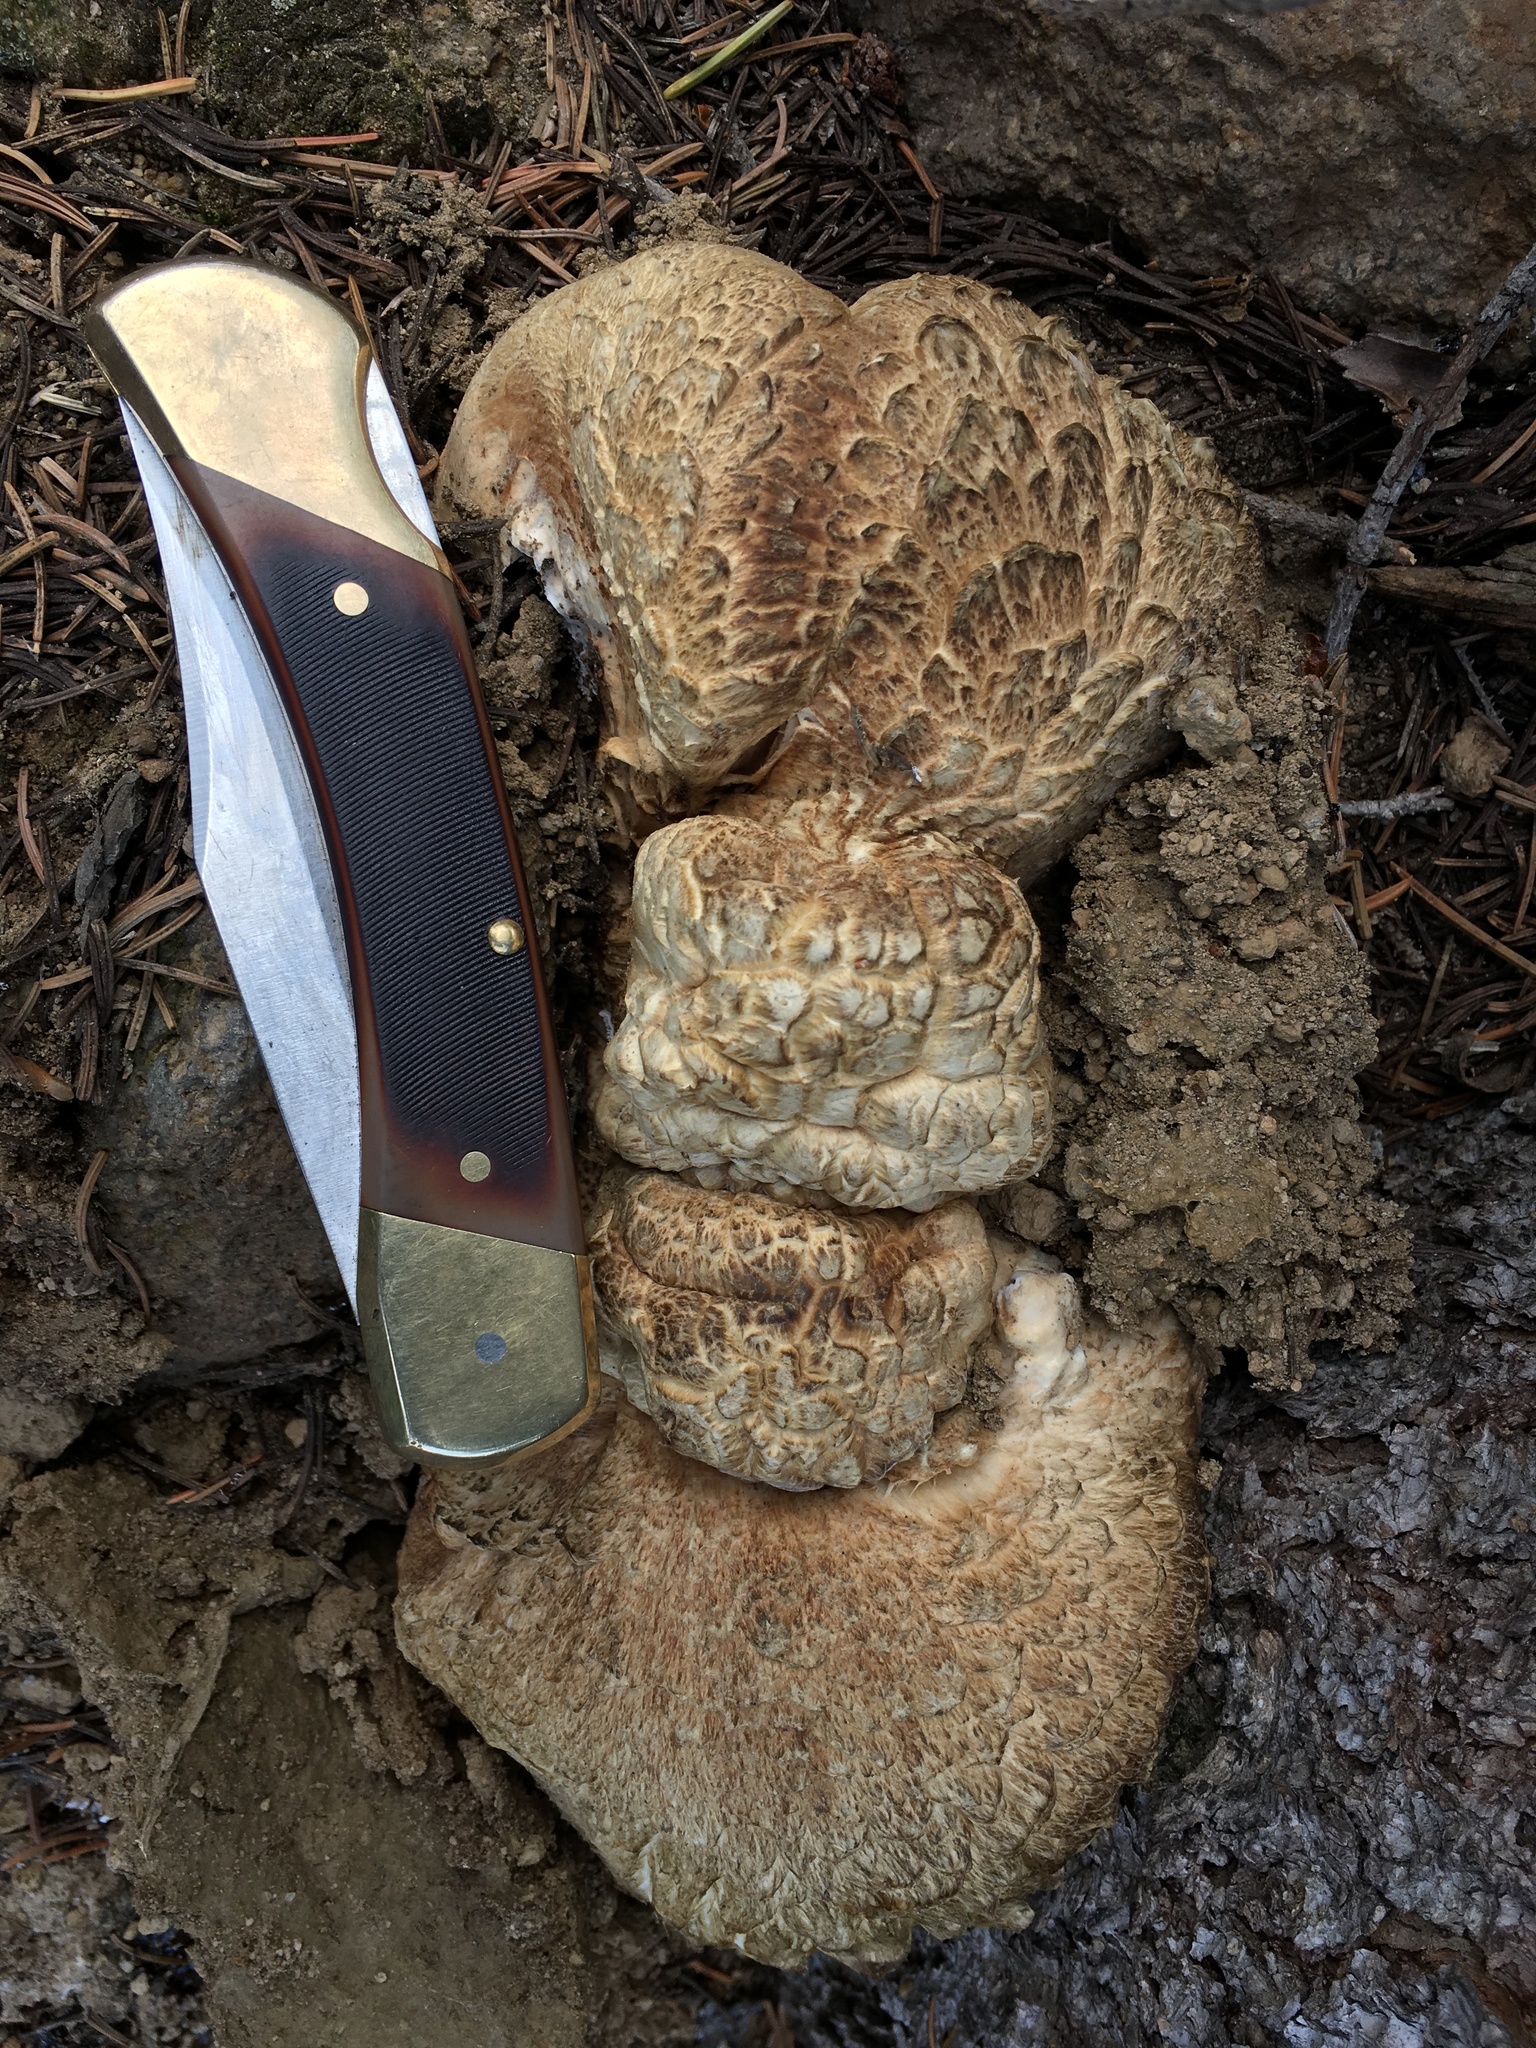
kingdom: Fungi
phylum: Basidiomycota
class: Agaricomycetes
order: Thelephorales
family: Bankeraceae
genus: Hydnellum
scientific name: Hydnellum versipelle
